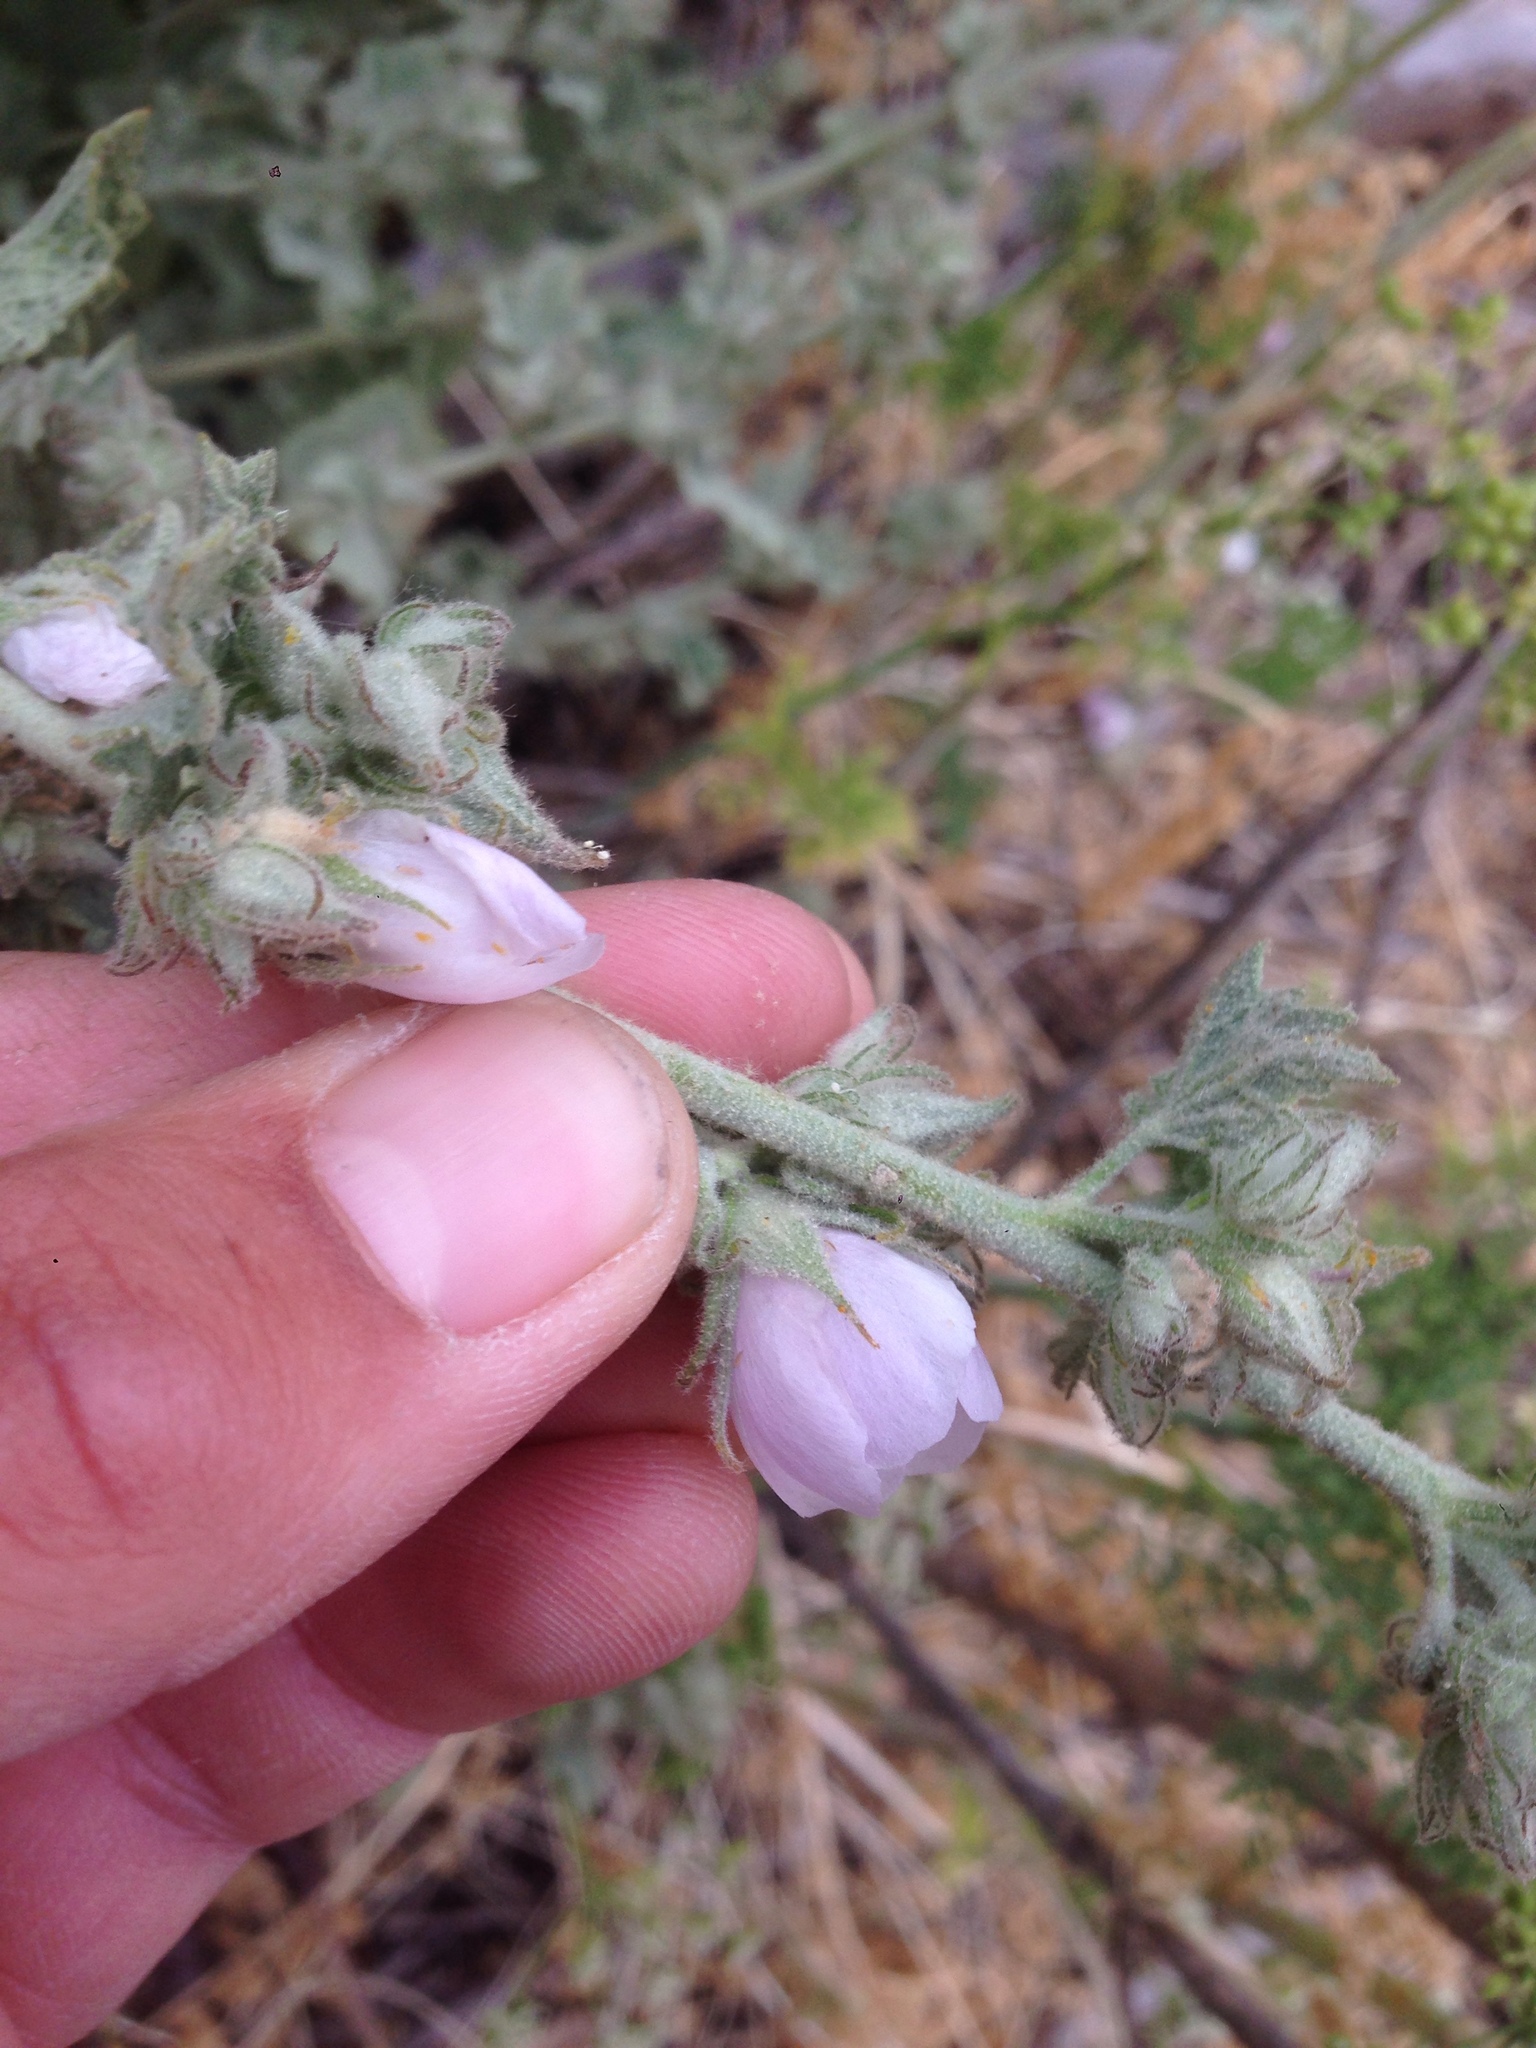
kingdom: Plantae
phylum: Tracheophyta
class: Magnoliopsida
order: Malvales
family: Malvaceae
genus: Malacothamnus
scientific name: Malacothamnus marrubioides
